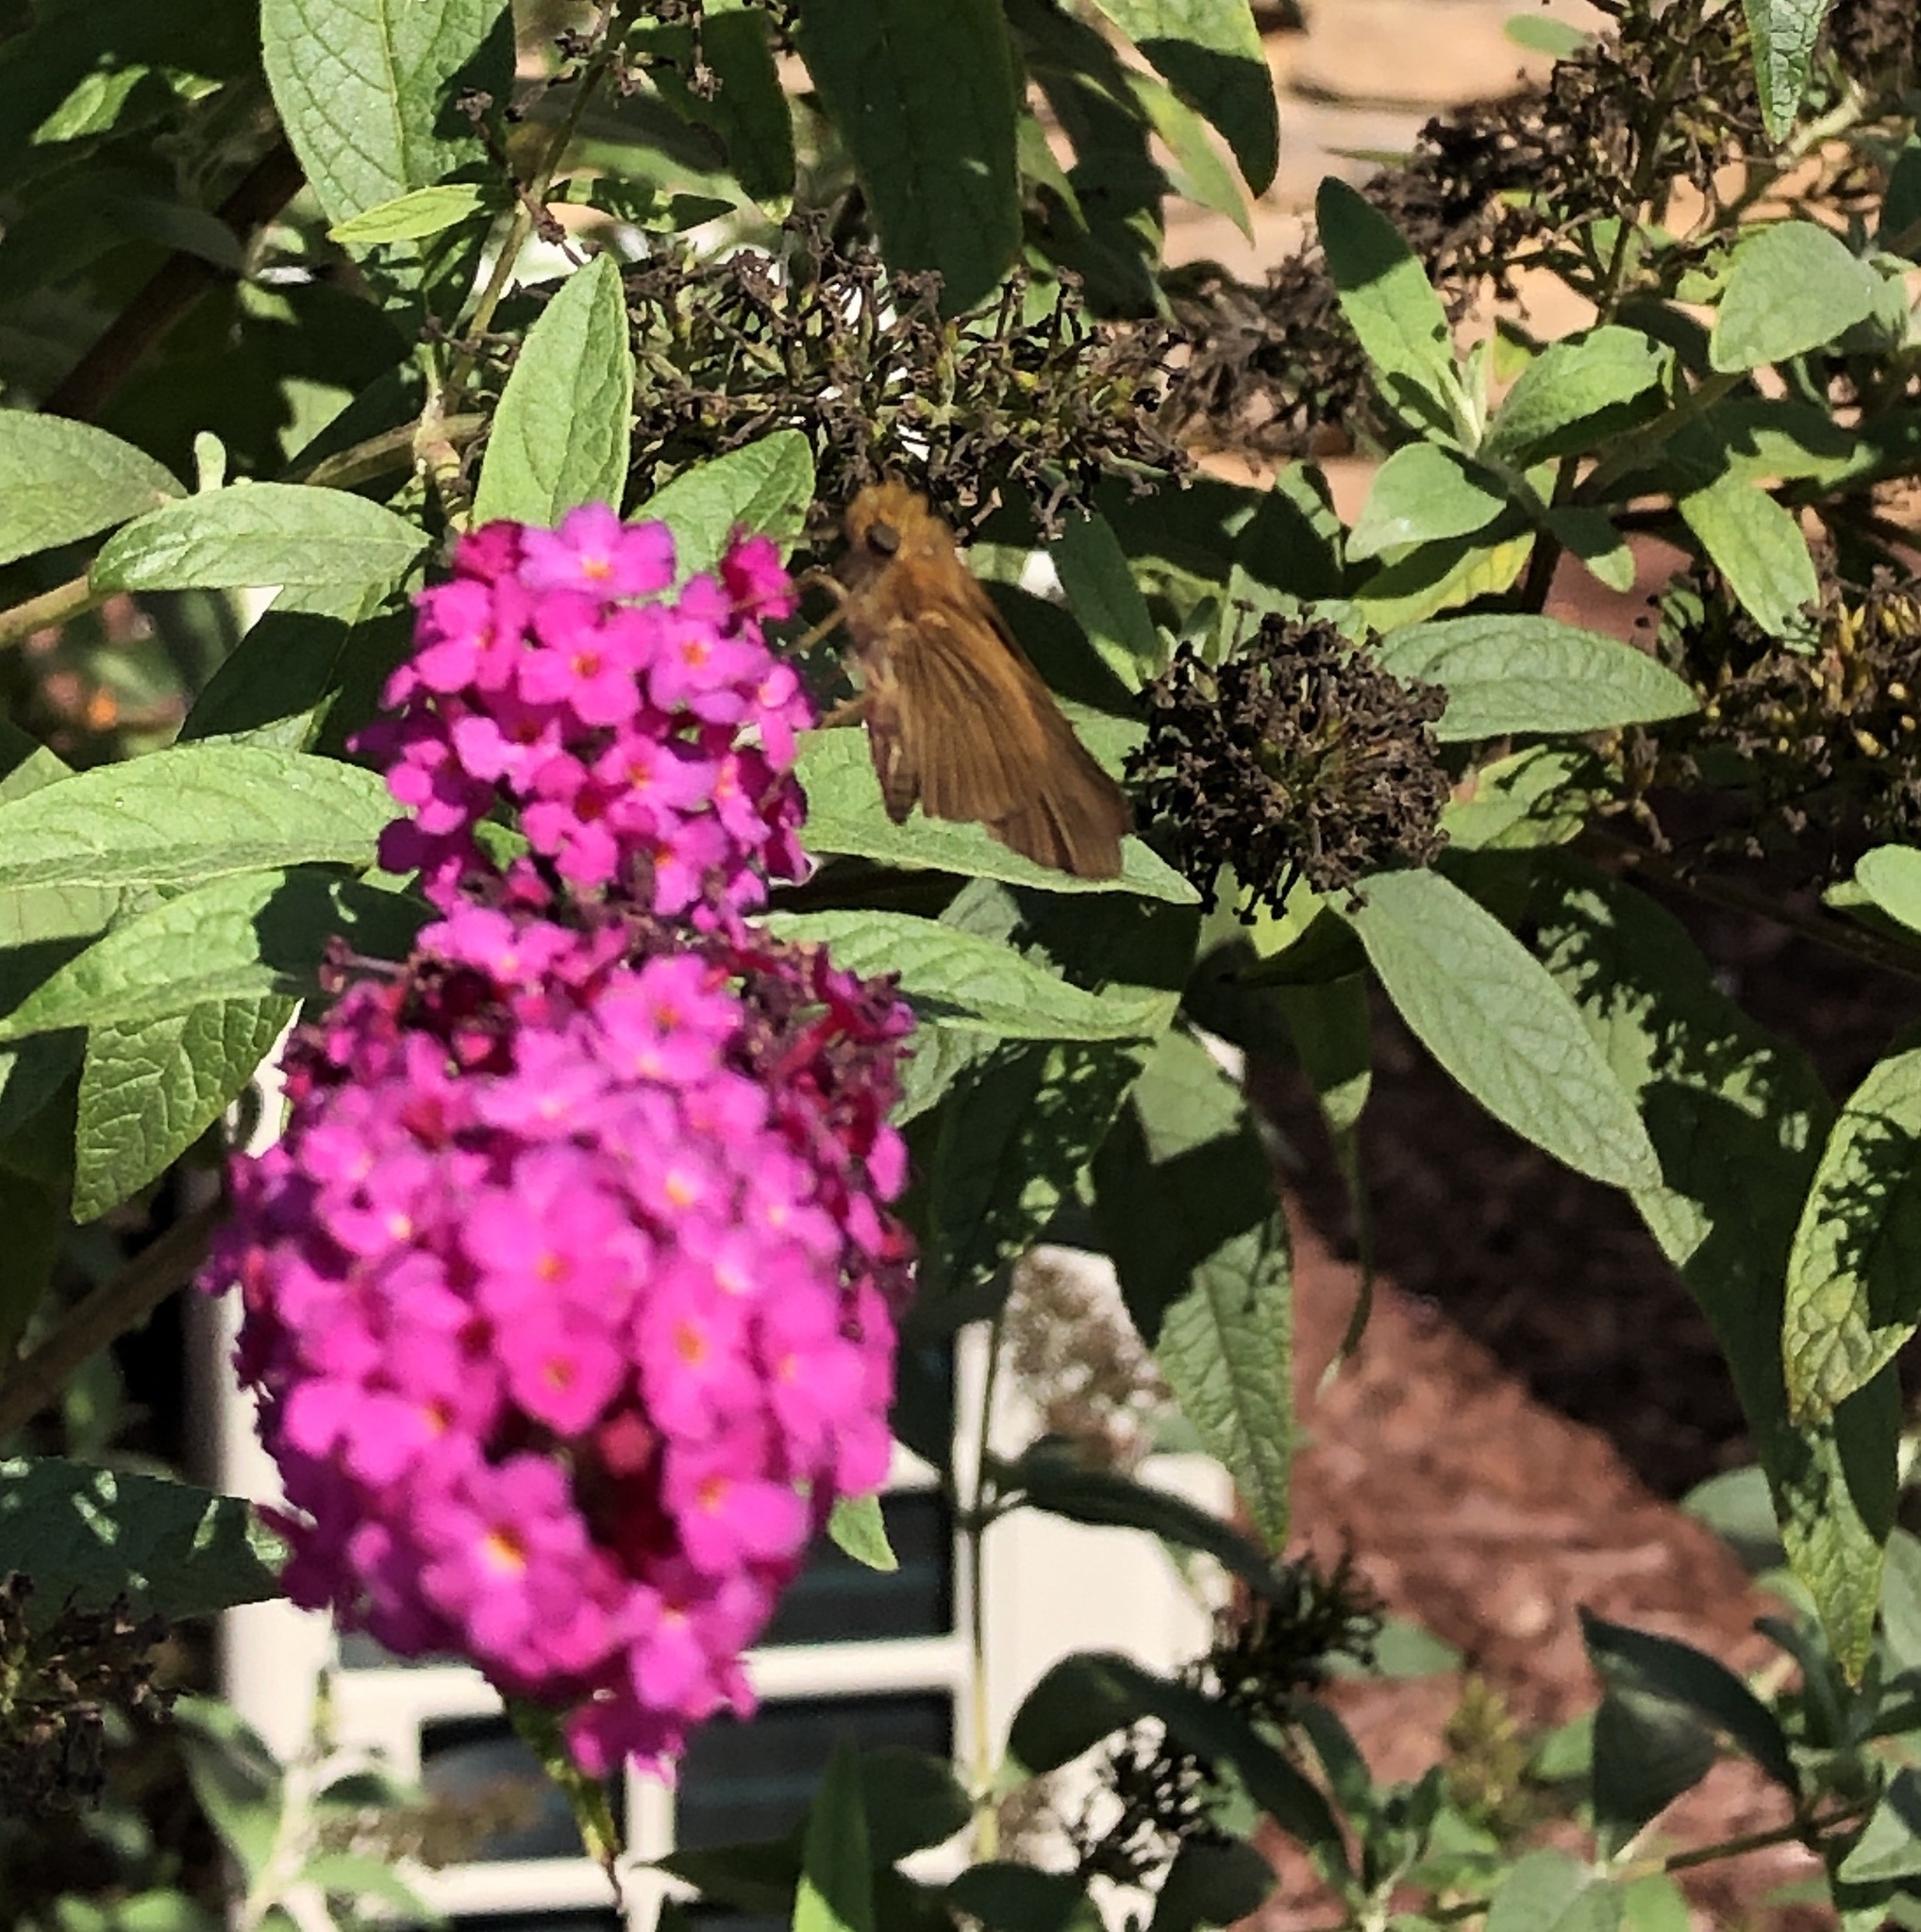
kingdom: Animalia
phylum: Arthropoda
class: Insecta
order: Lepidoptera
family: Hesperiidae
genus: Panoquina
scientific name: Panoquina ocola
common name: Ocola skipper
